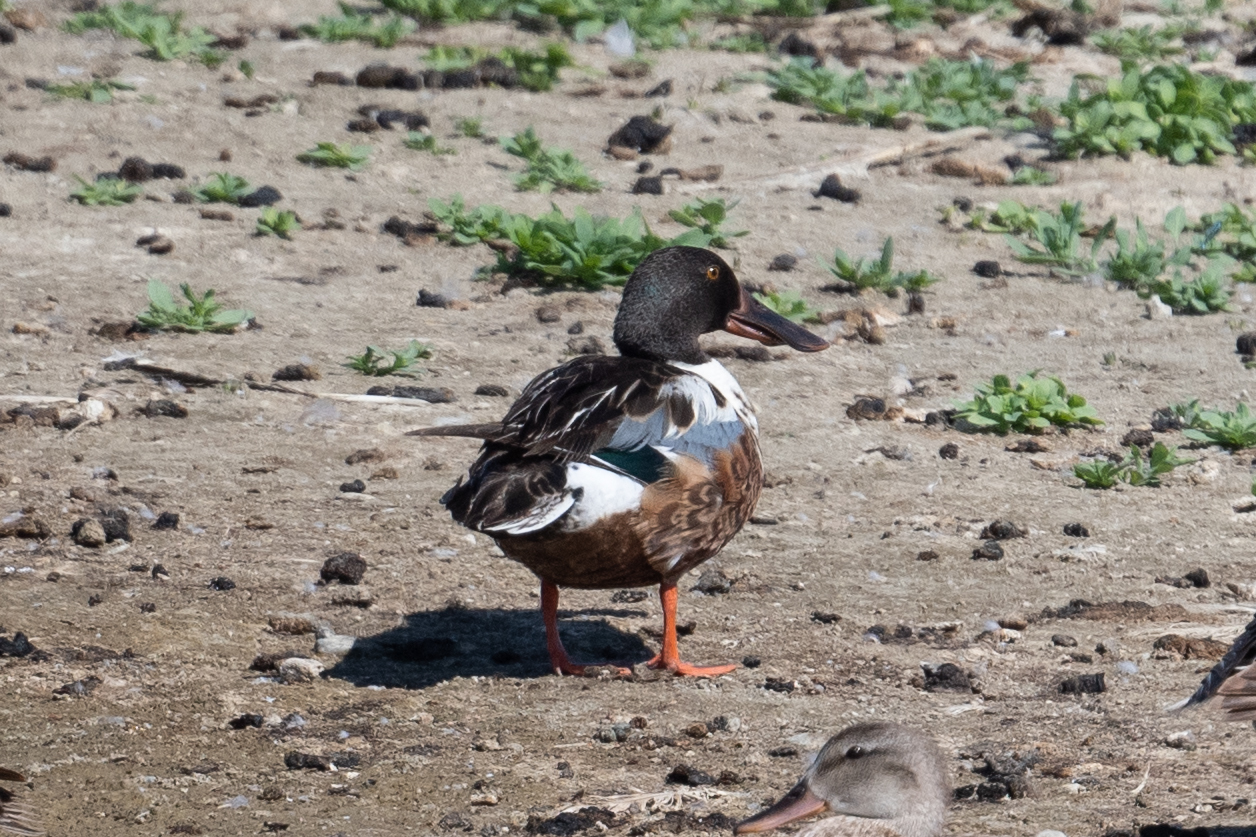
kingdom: Animalia
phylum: Chordata
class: Aves
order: Anseriformes
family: Anatidae
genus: Spatula
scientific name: Spatula clypeata
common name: Northern shoveler
